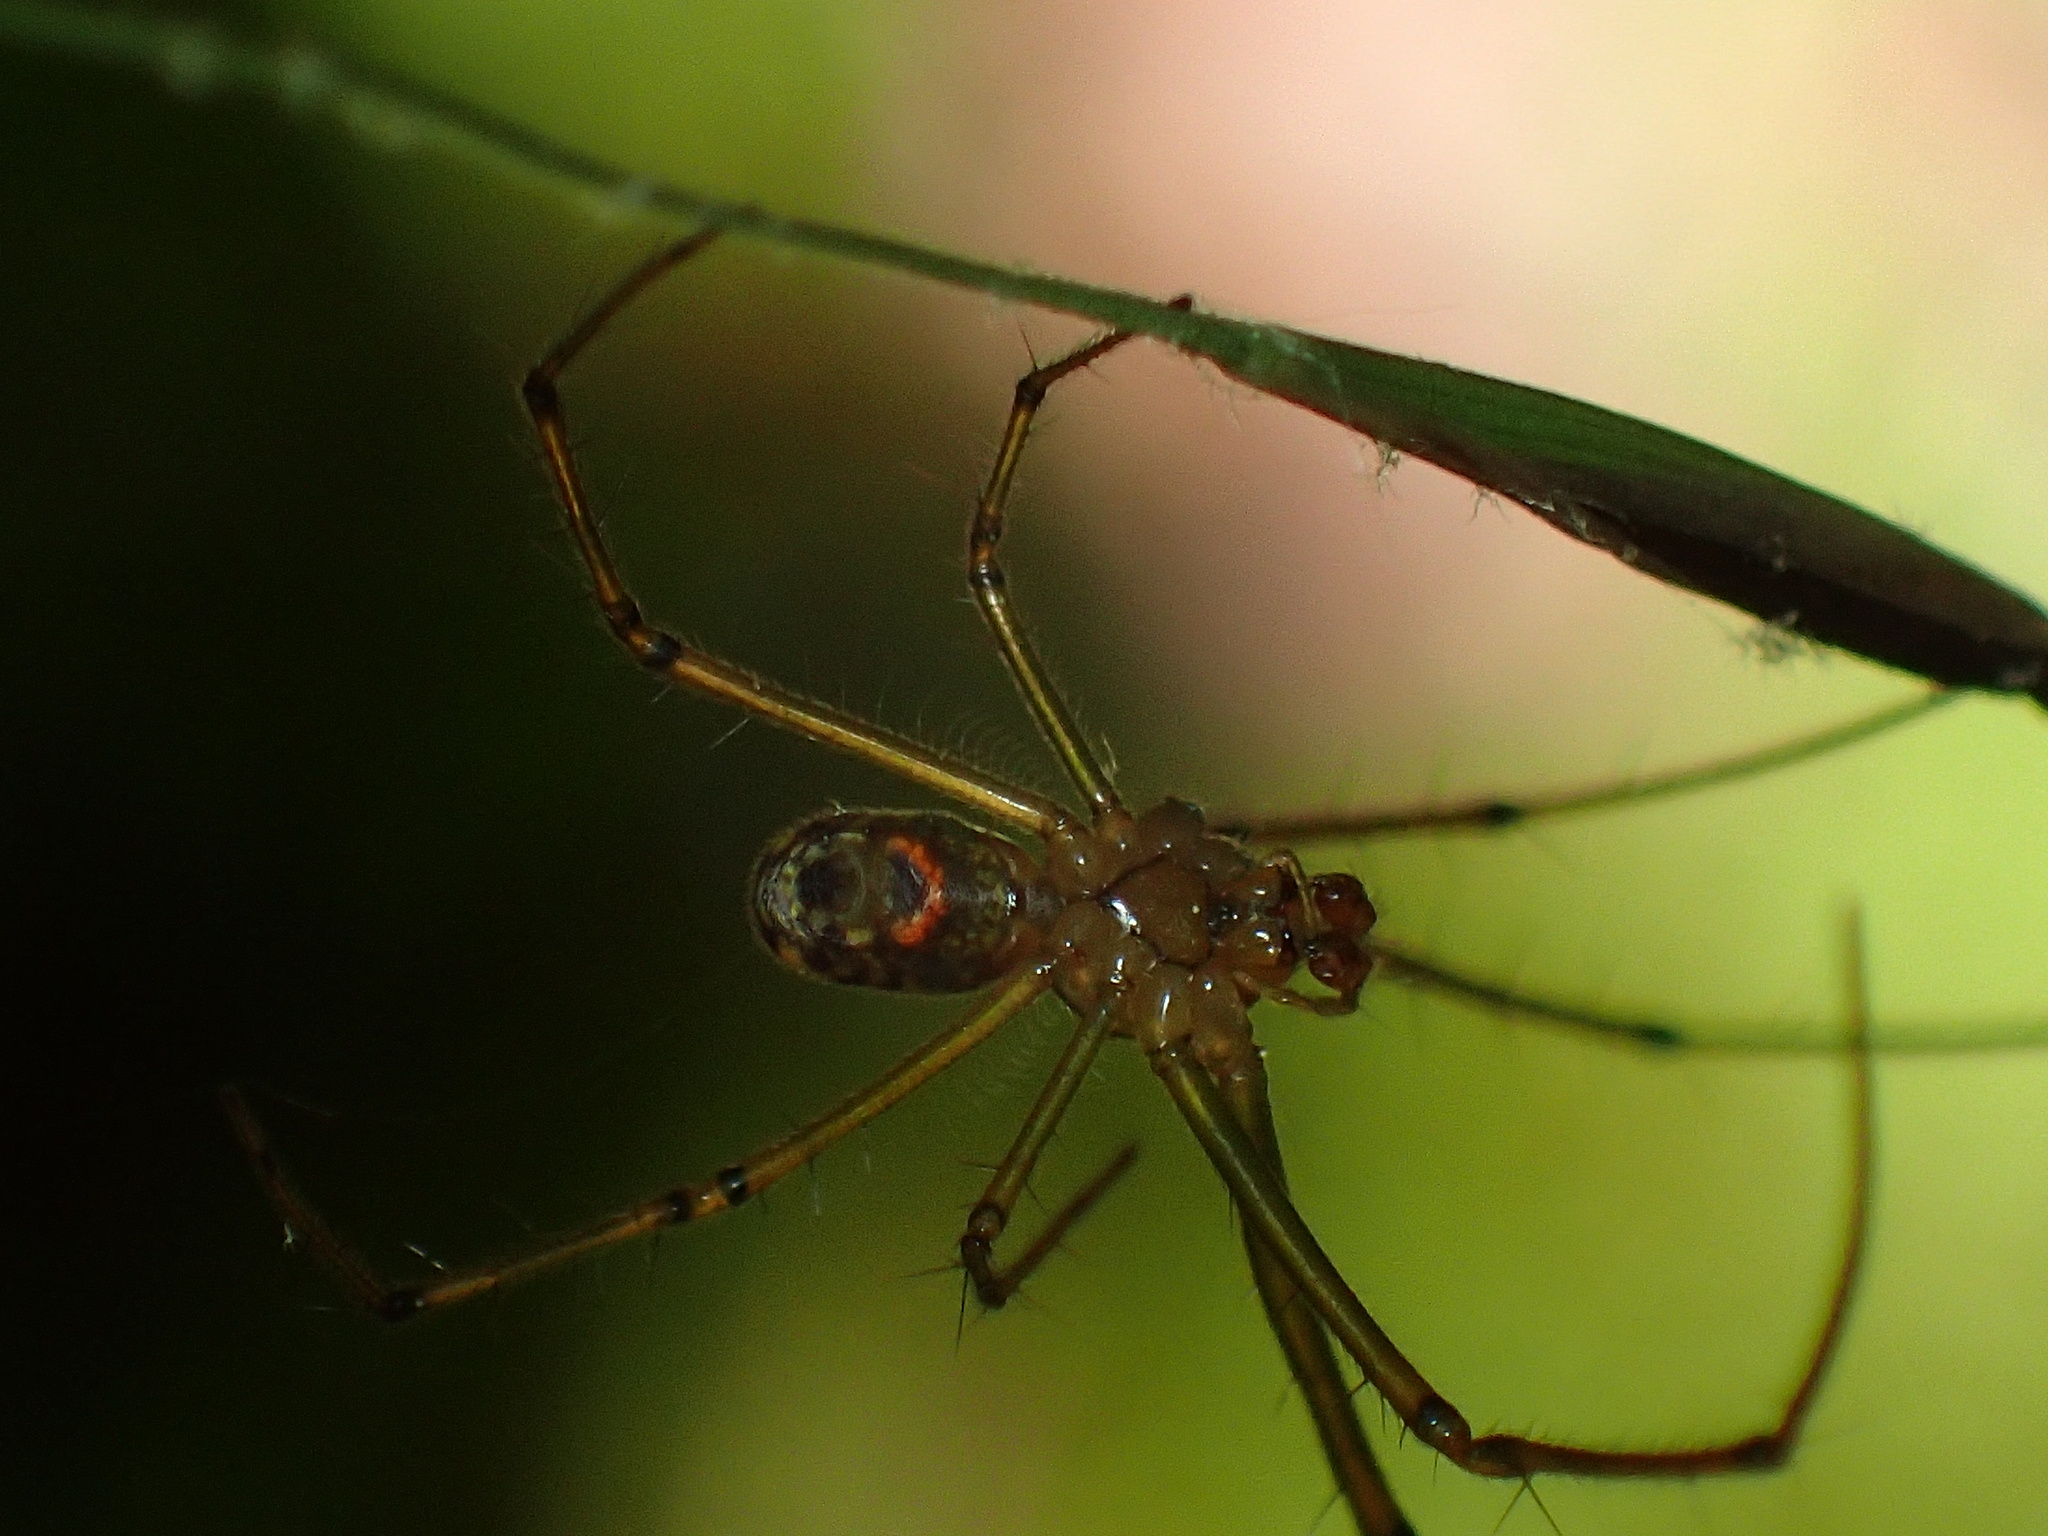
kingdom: Animalia
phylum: Arthropoda
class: Arachnida
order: Araneae
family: Tetragnathidae
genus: Leucauge
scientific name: Leucauge venusta
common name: Longjawed orb weavers
